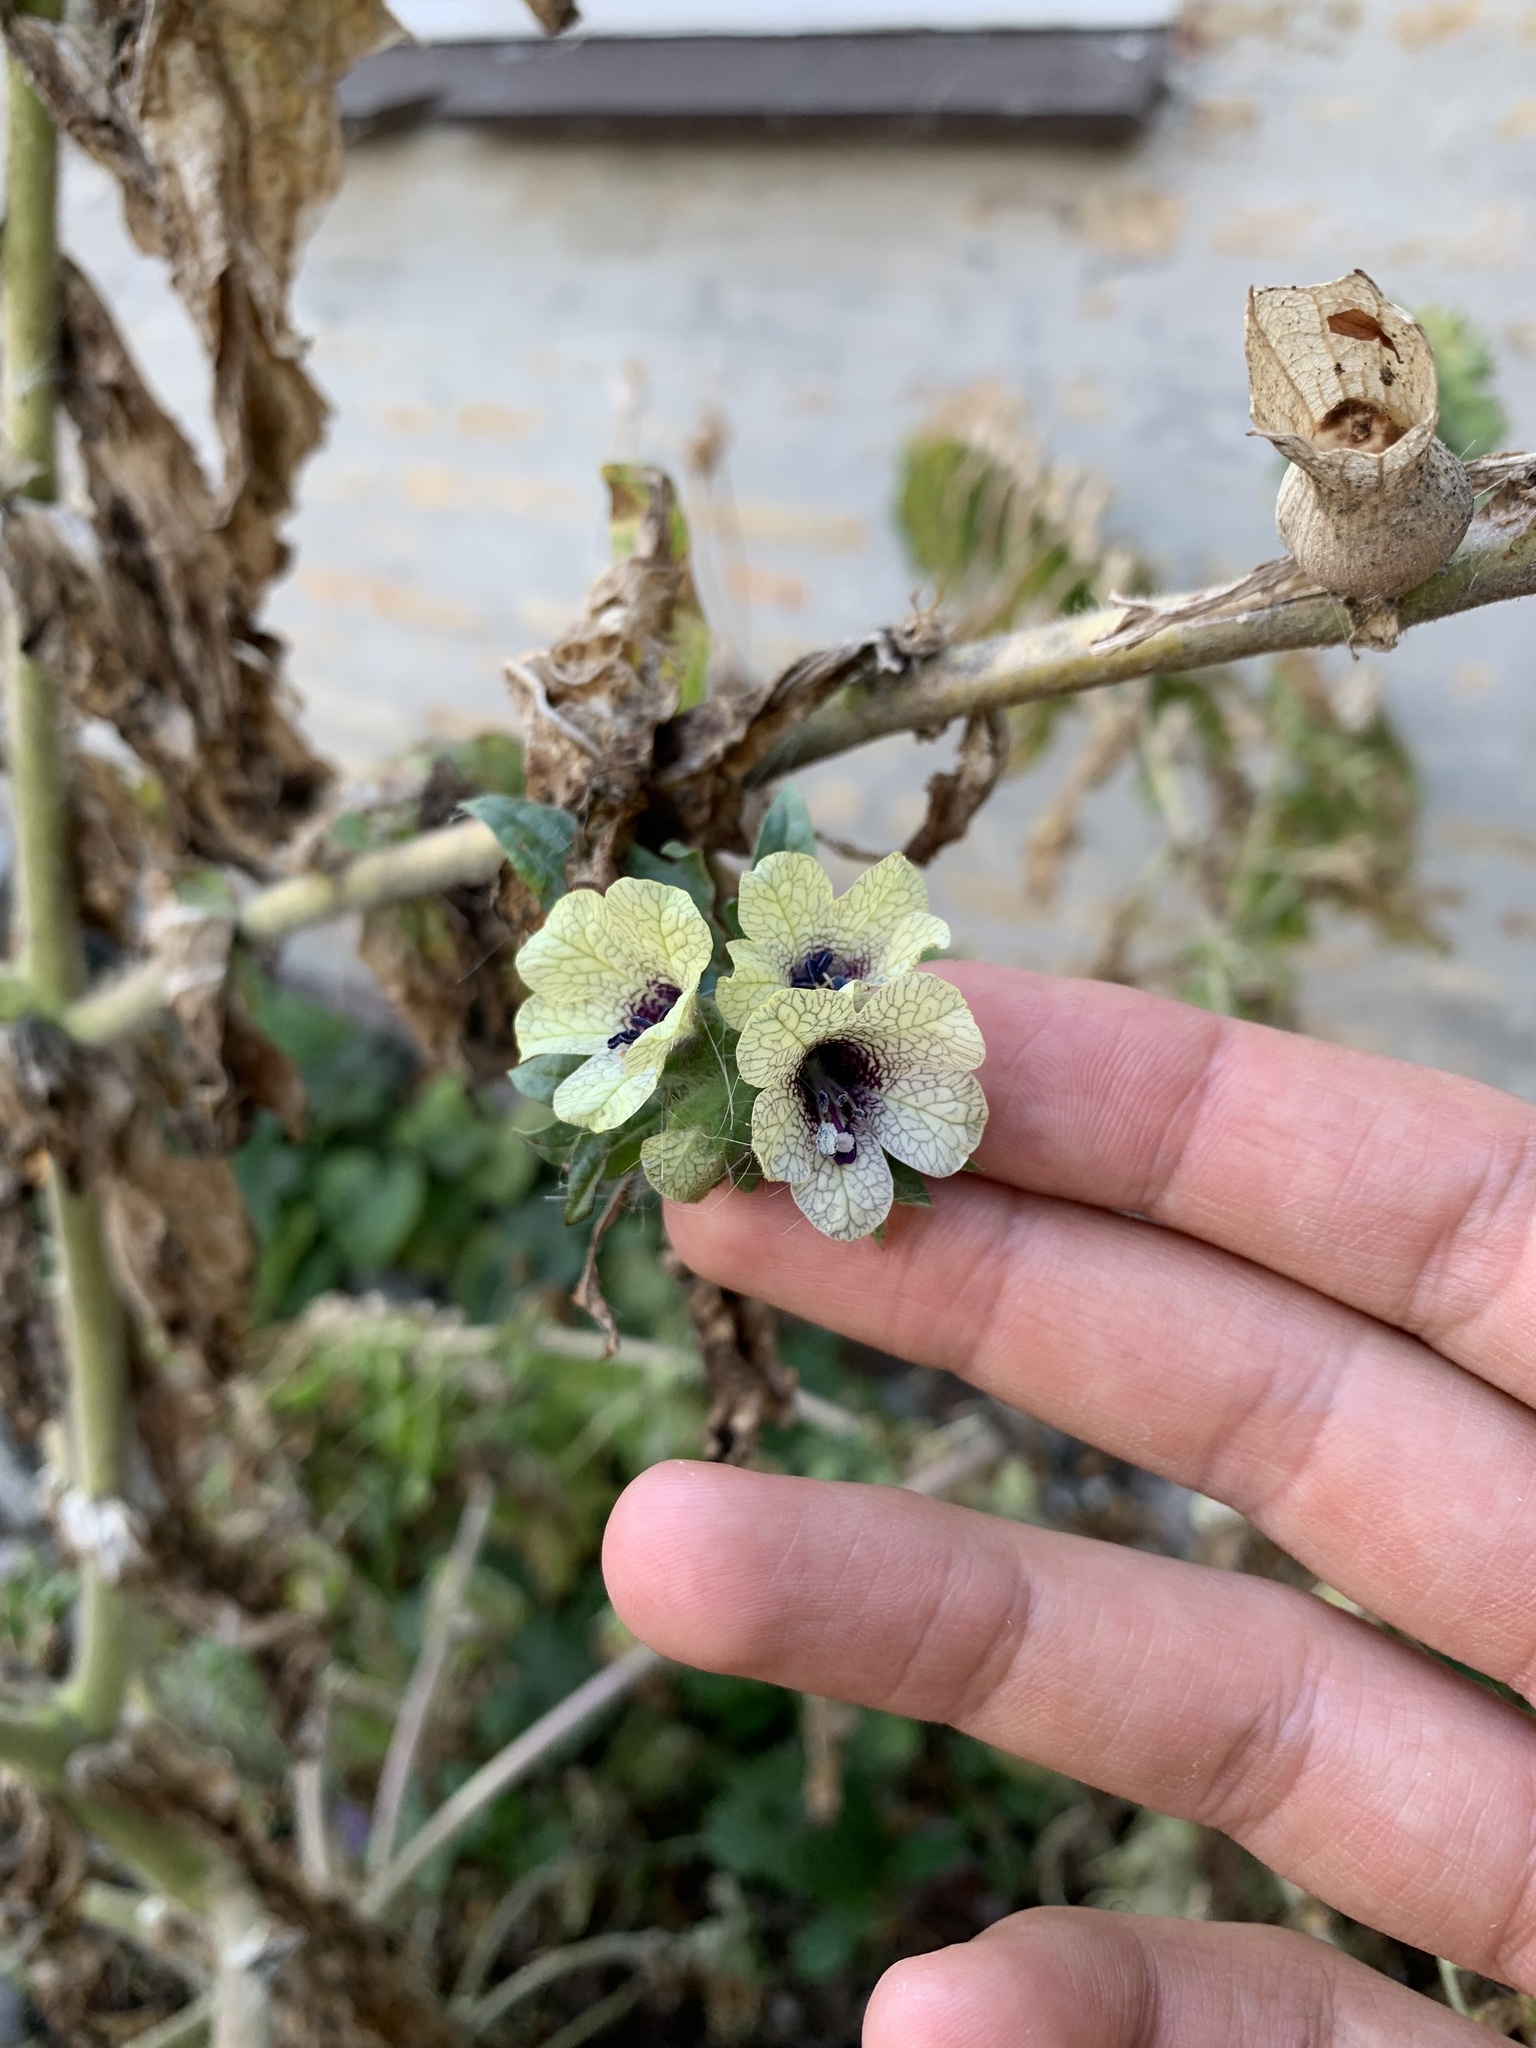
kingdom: Plantae
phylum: Tracheophyta
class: Magnoliopsida
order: Solanales
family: Solanaceae
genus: Hyoscyamus
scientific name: Hyoscyamus niger
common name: Henbane
